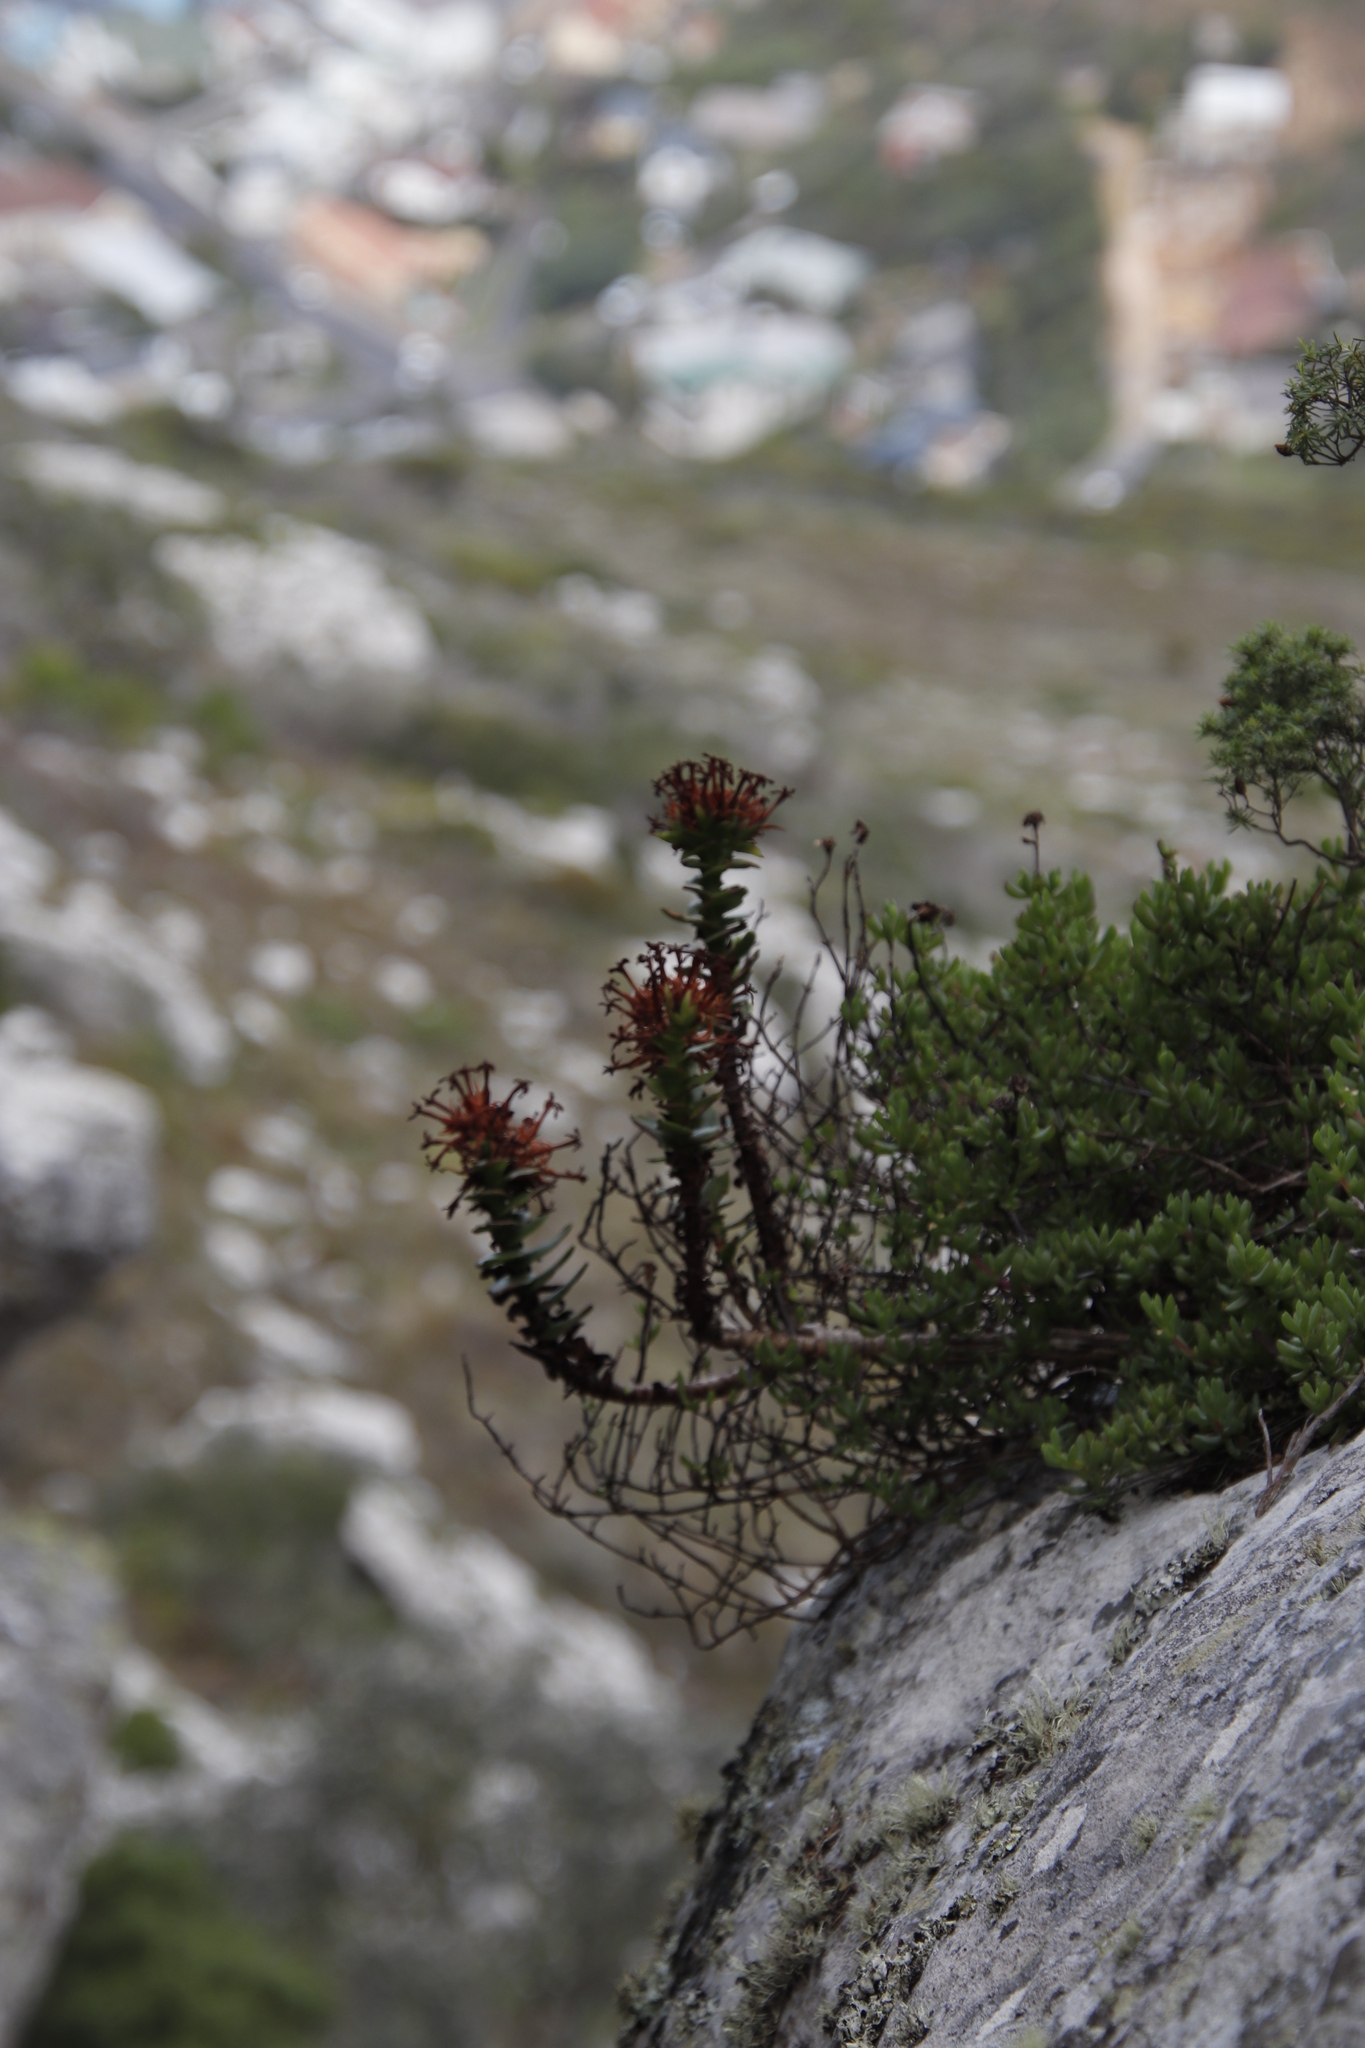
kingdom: Plantae
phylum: Tracheophyta
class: Magnoliopsida
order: Saxifragales
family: Crassulaceae
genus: Crassula
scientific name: Crassula coccinea
